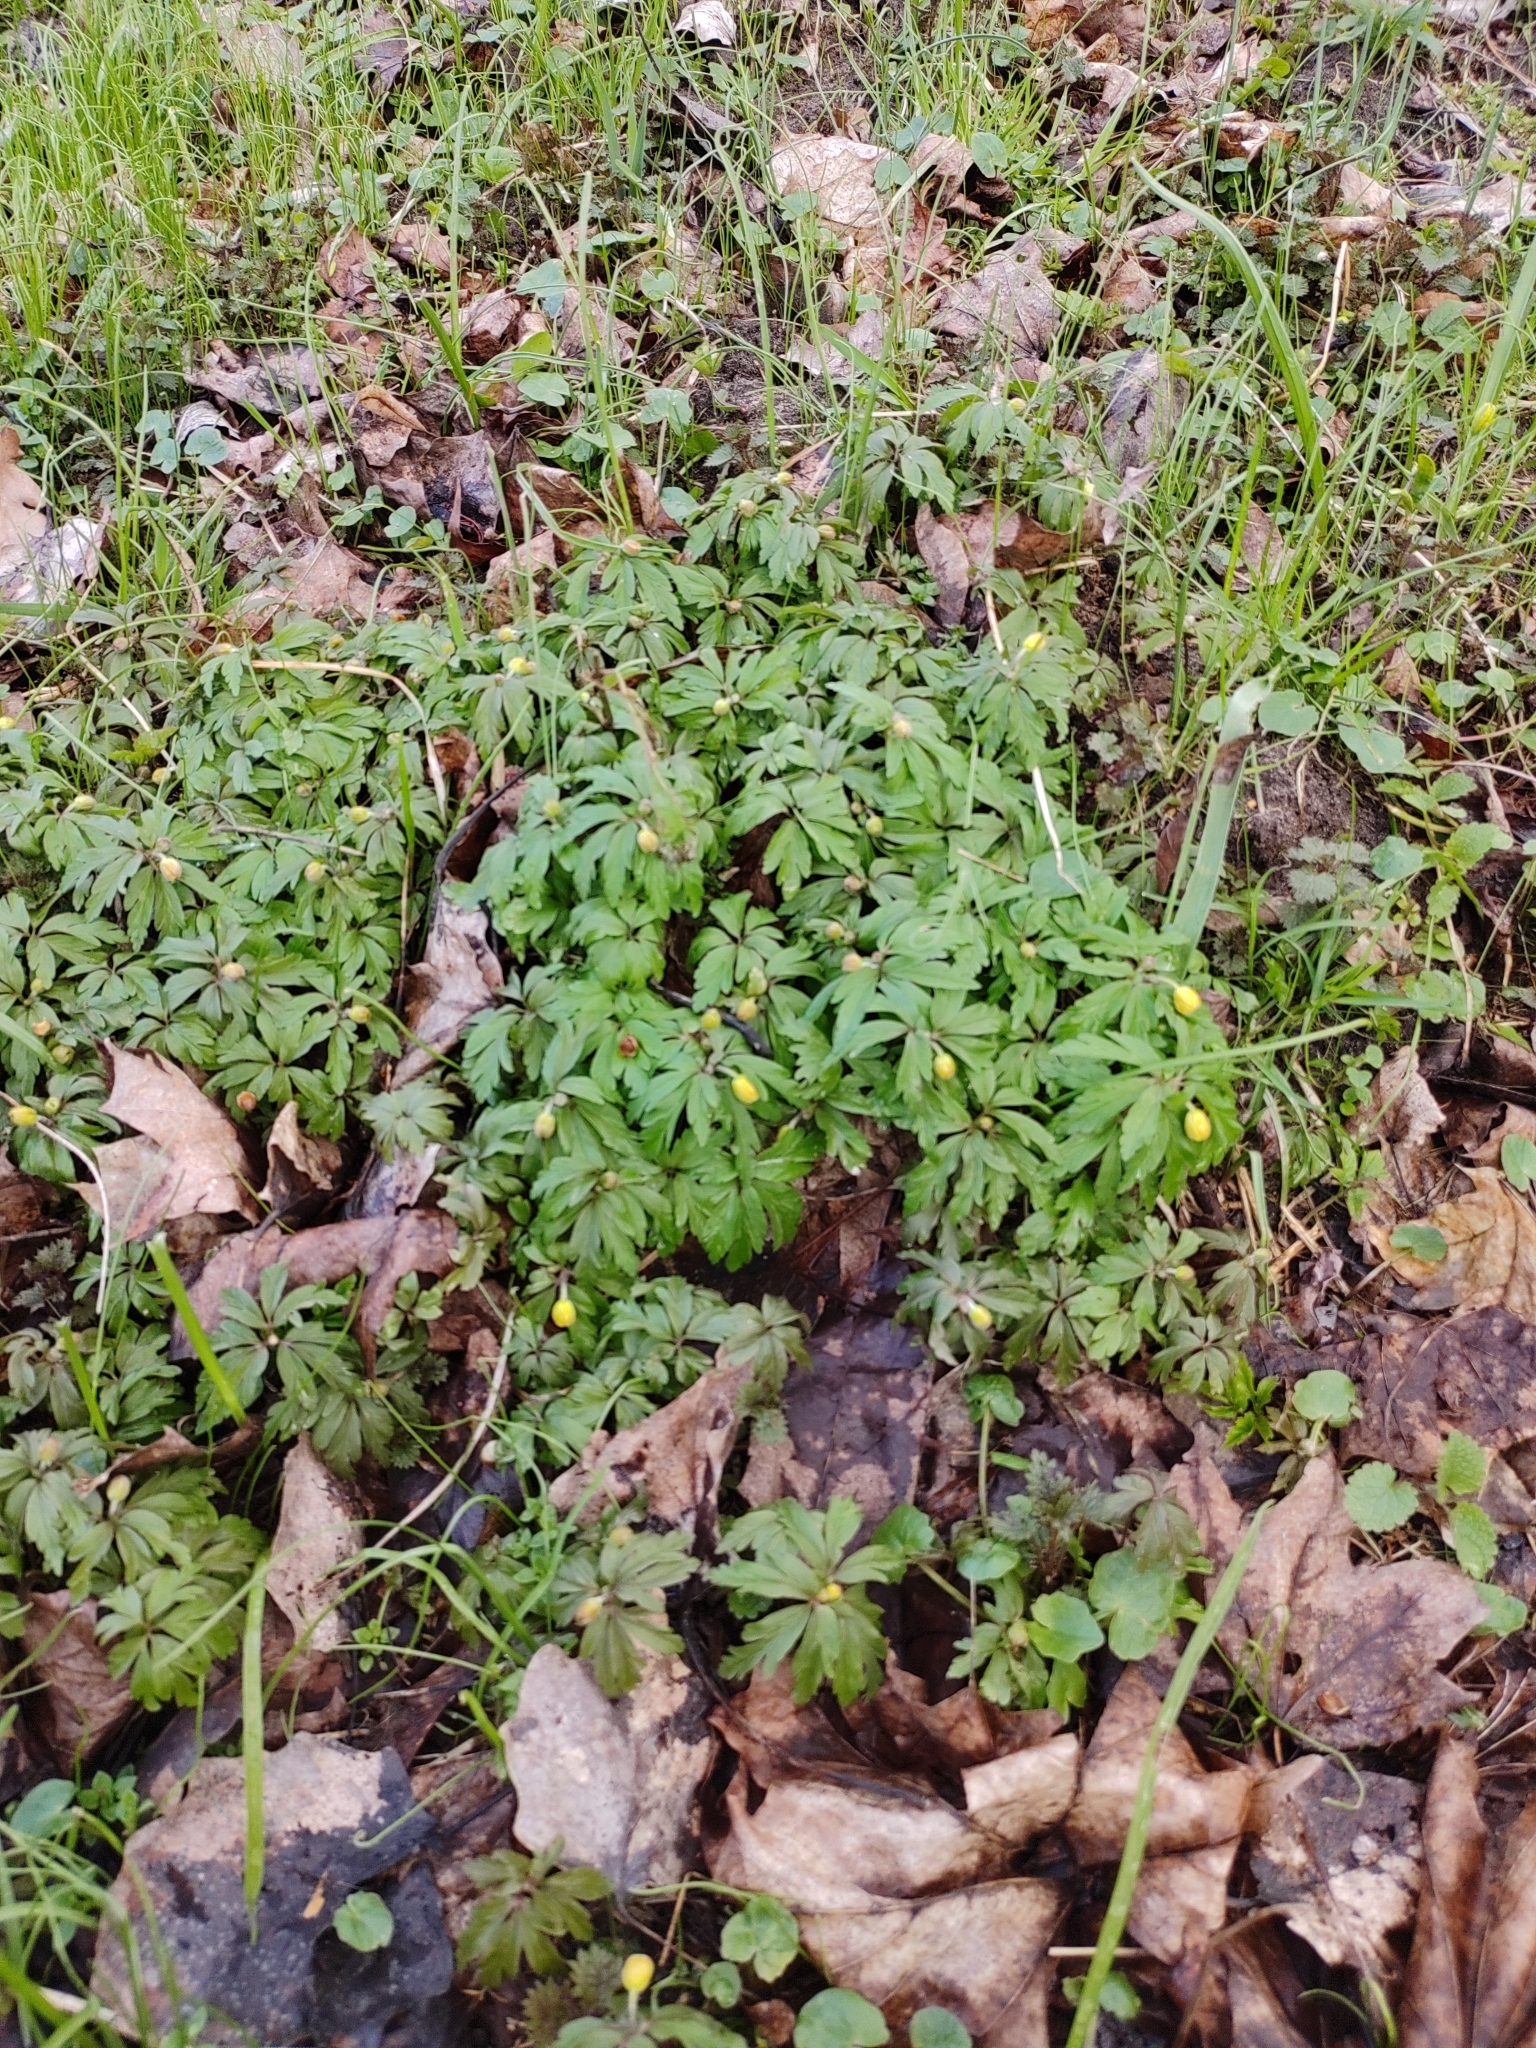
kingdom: Plantae
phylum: Tracheophyta
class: Magnoliopsida
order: Ranunculales
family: Ranunculaceae
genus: Anemone
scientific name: Anemone ranunculoides
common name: Yellow anemone
